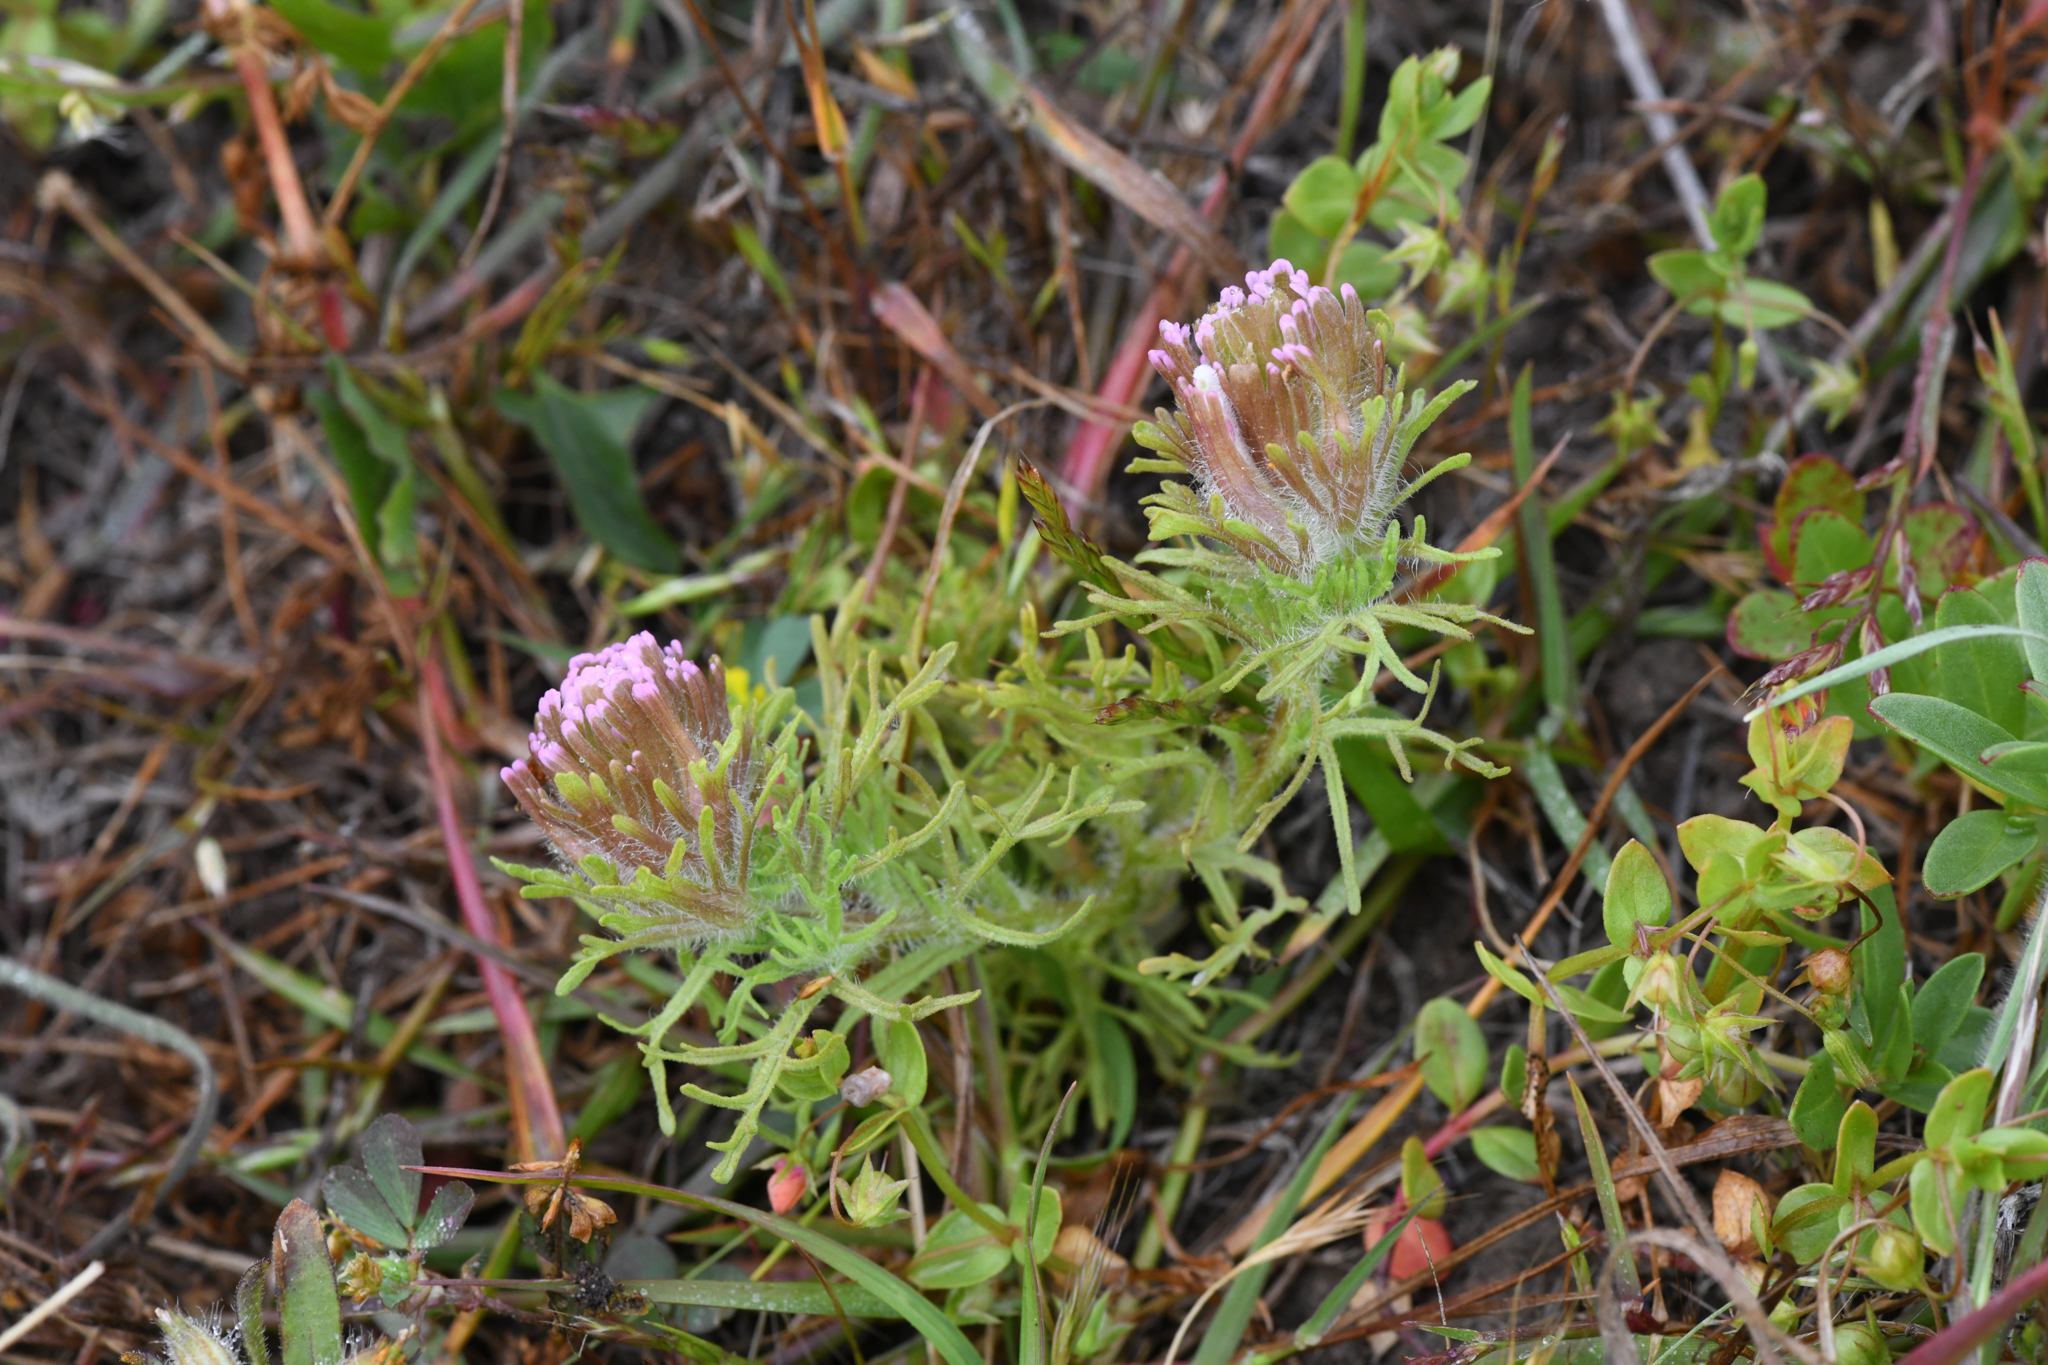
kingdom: Plantae
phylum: Tracheophyta
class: Magnoliopsida
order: Lamiales
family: Orobanchaceae
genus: Castilleja
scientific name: Castilleja exserta
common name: Purple owl-clover
